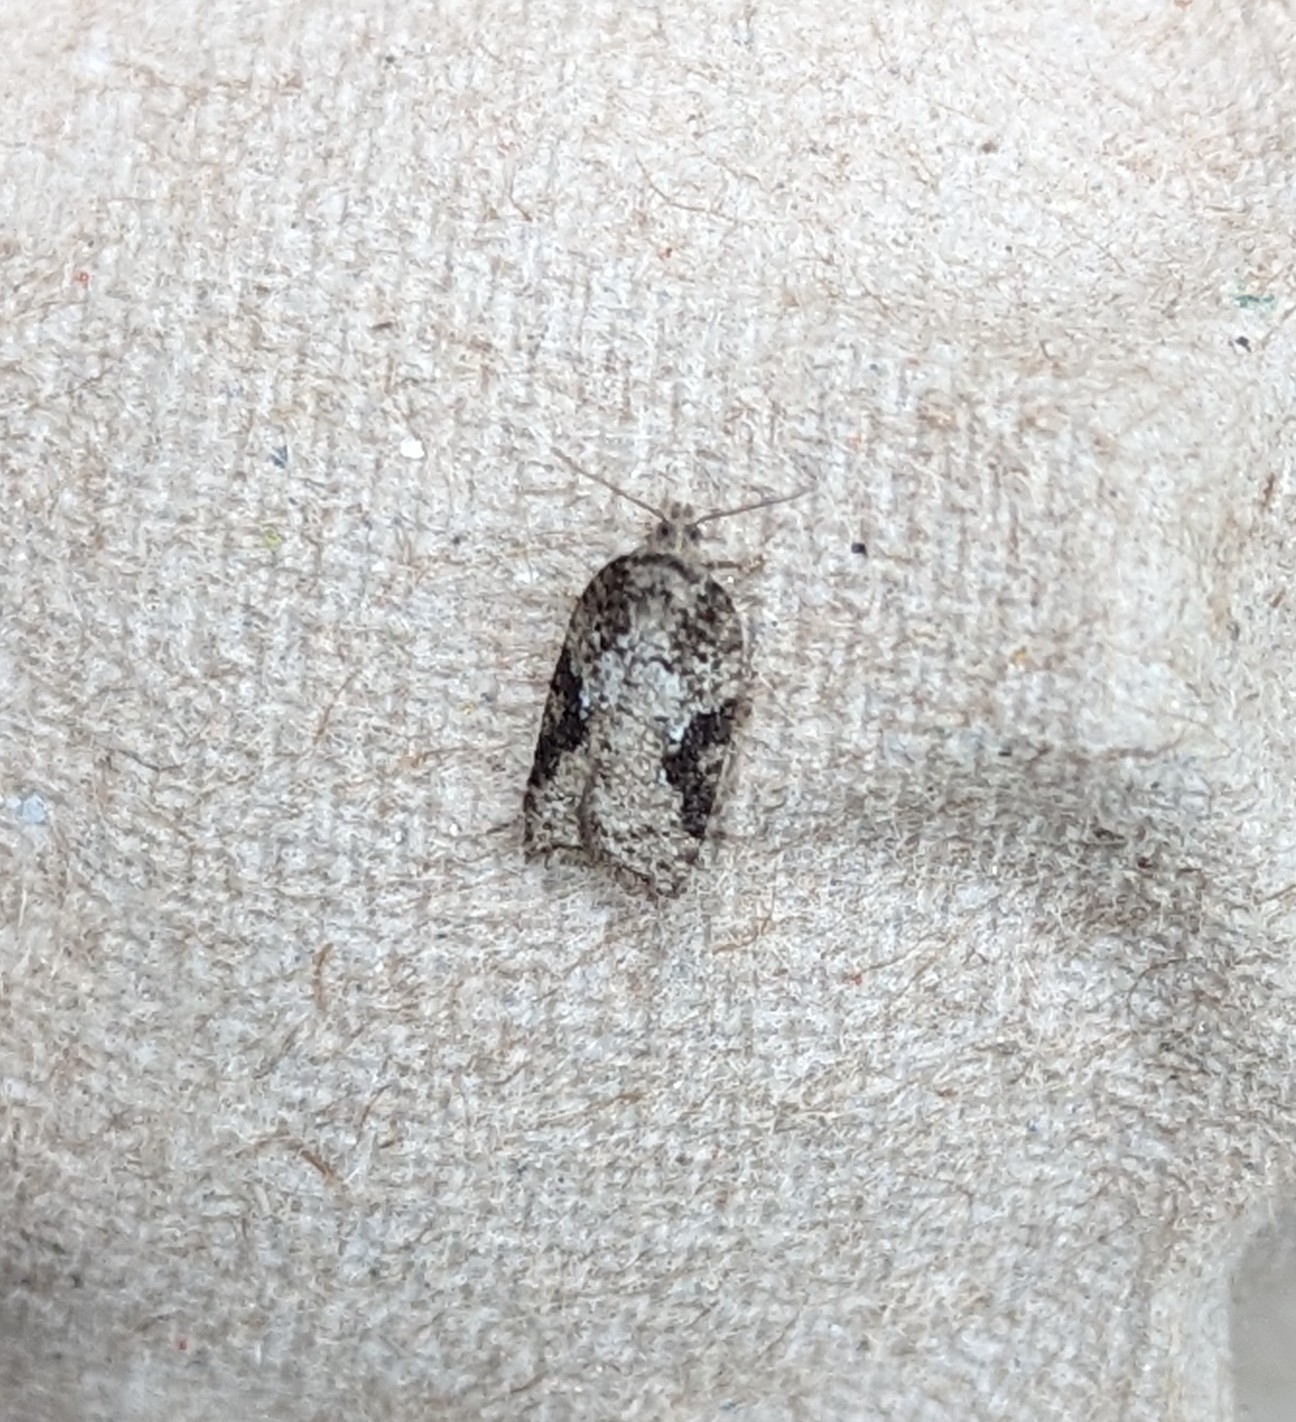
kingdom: Animalia
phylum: Arthropoda
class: Insecta
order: Lepidoptera
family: Tortricidae
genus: Acleris
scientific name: Acleris
